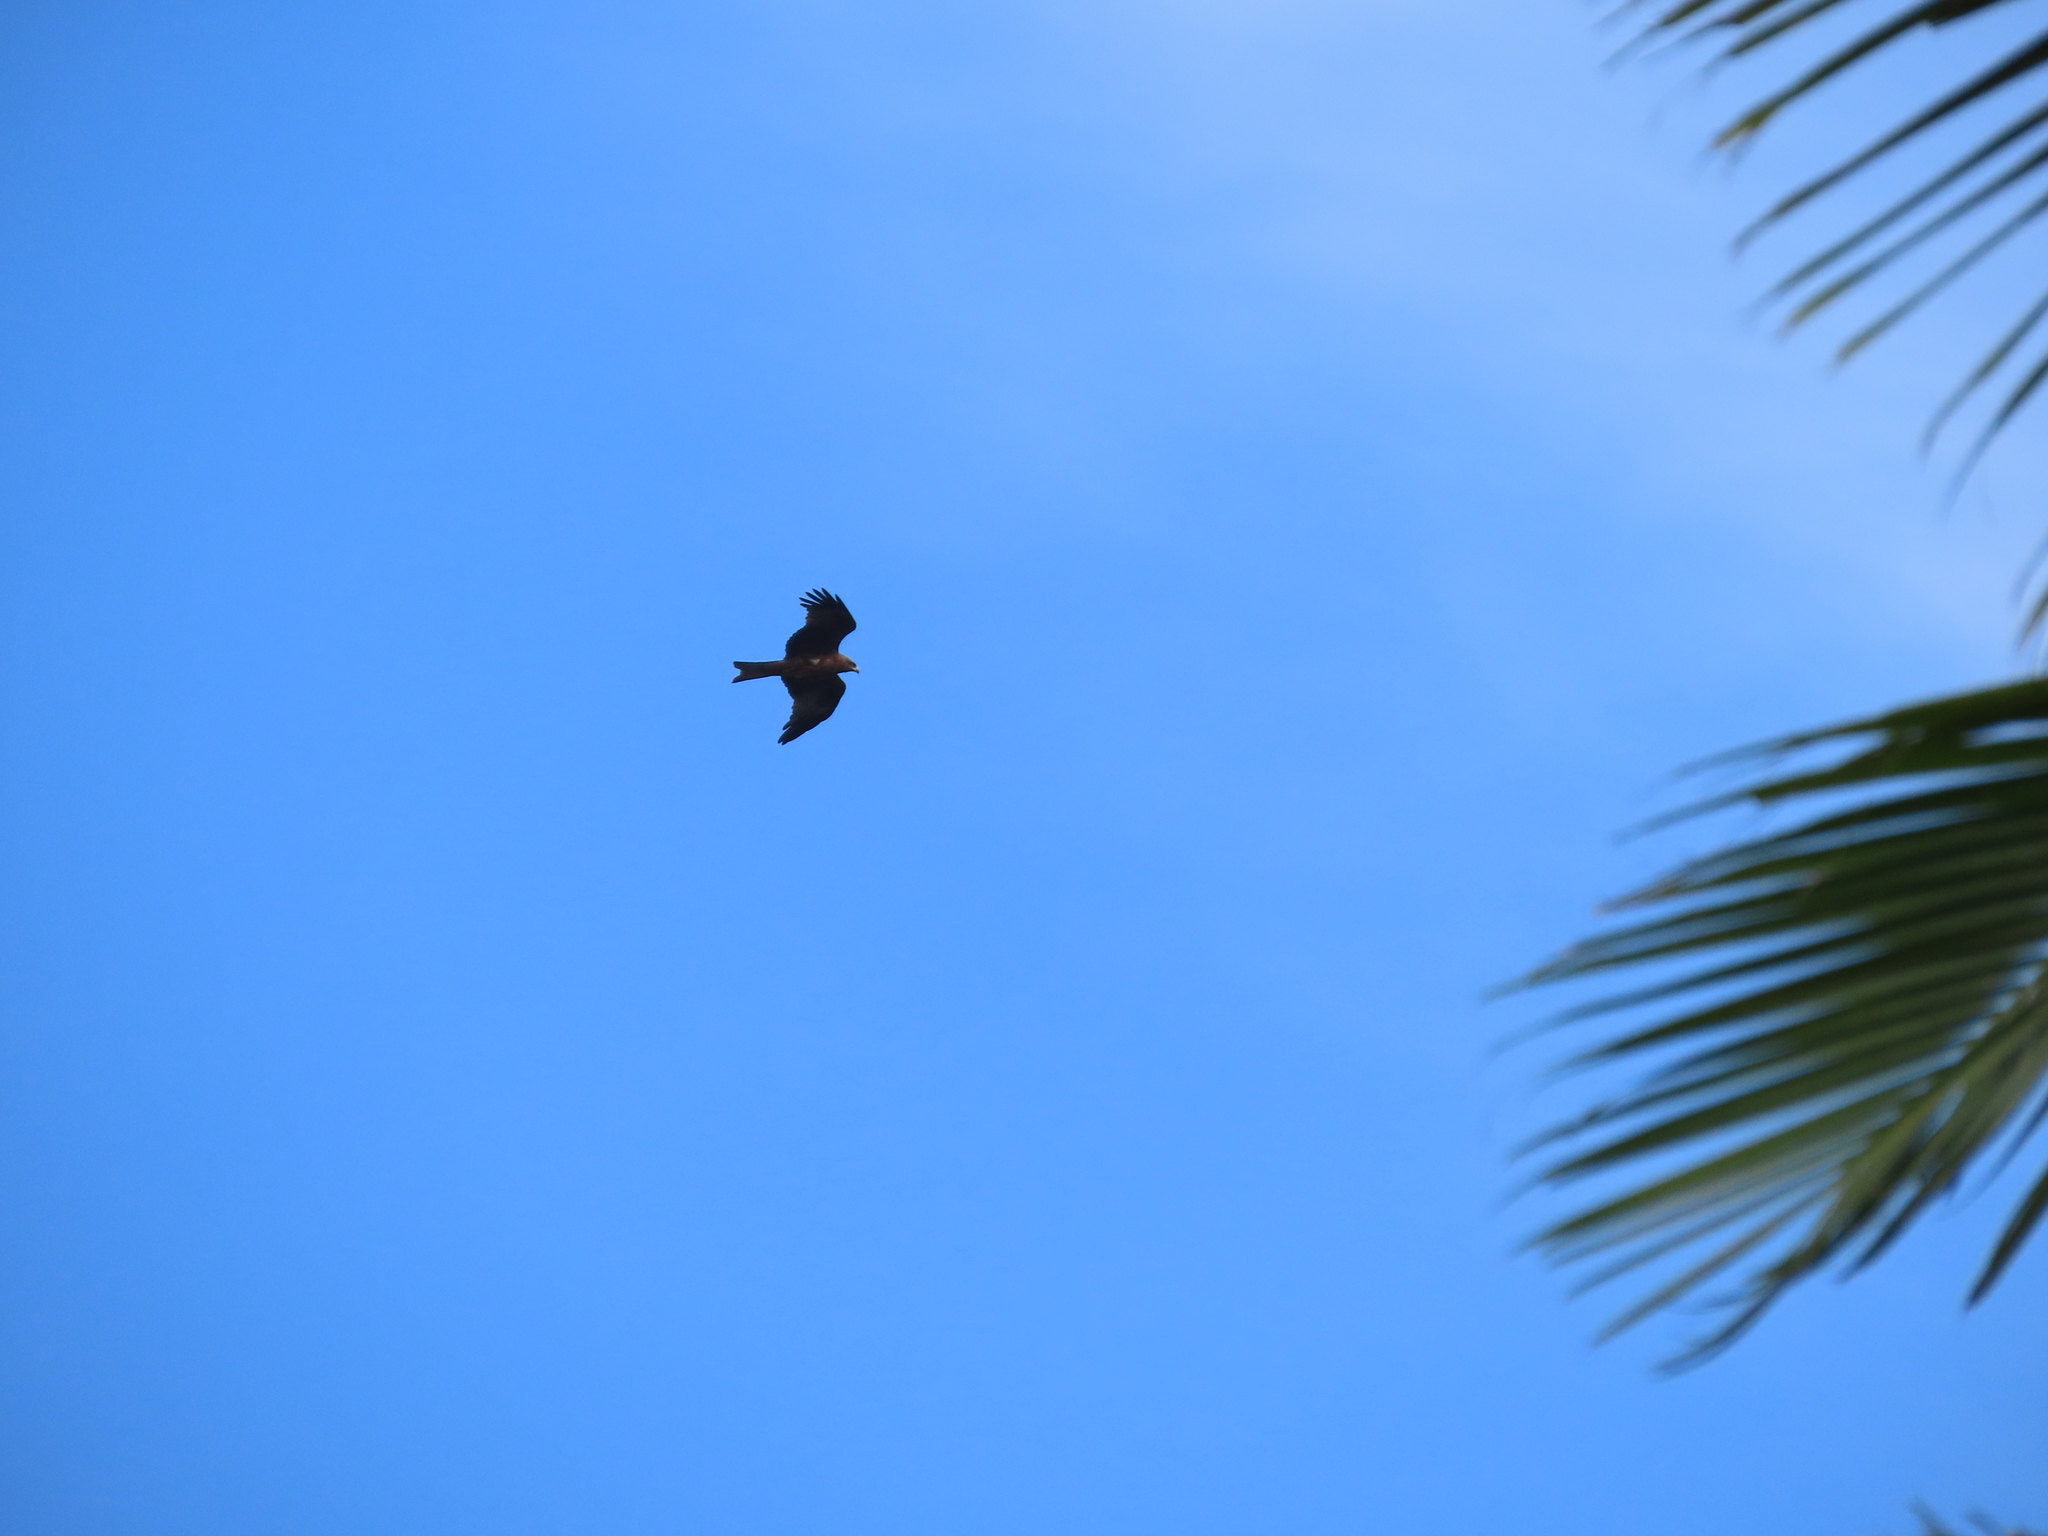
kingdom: Animalia
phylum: Chordata
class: Aves
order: Accipitriformes
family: Accipitridae
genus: Milvus
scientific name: Milvus migrans
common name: Black kite
